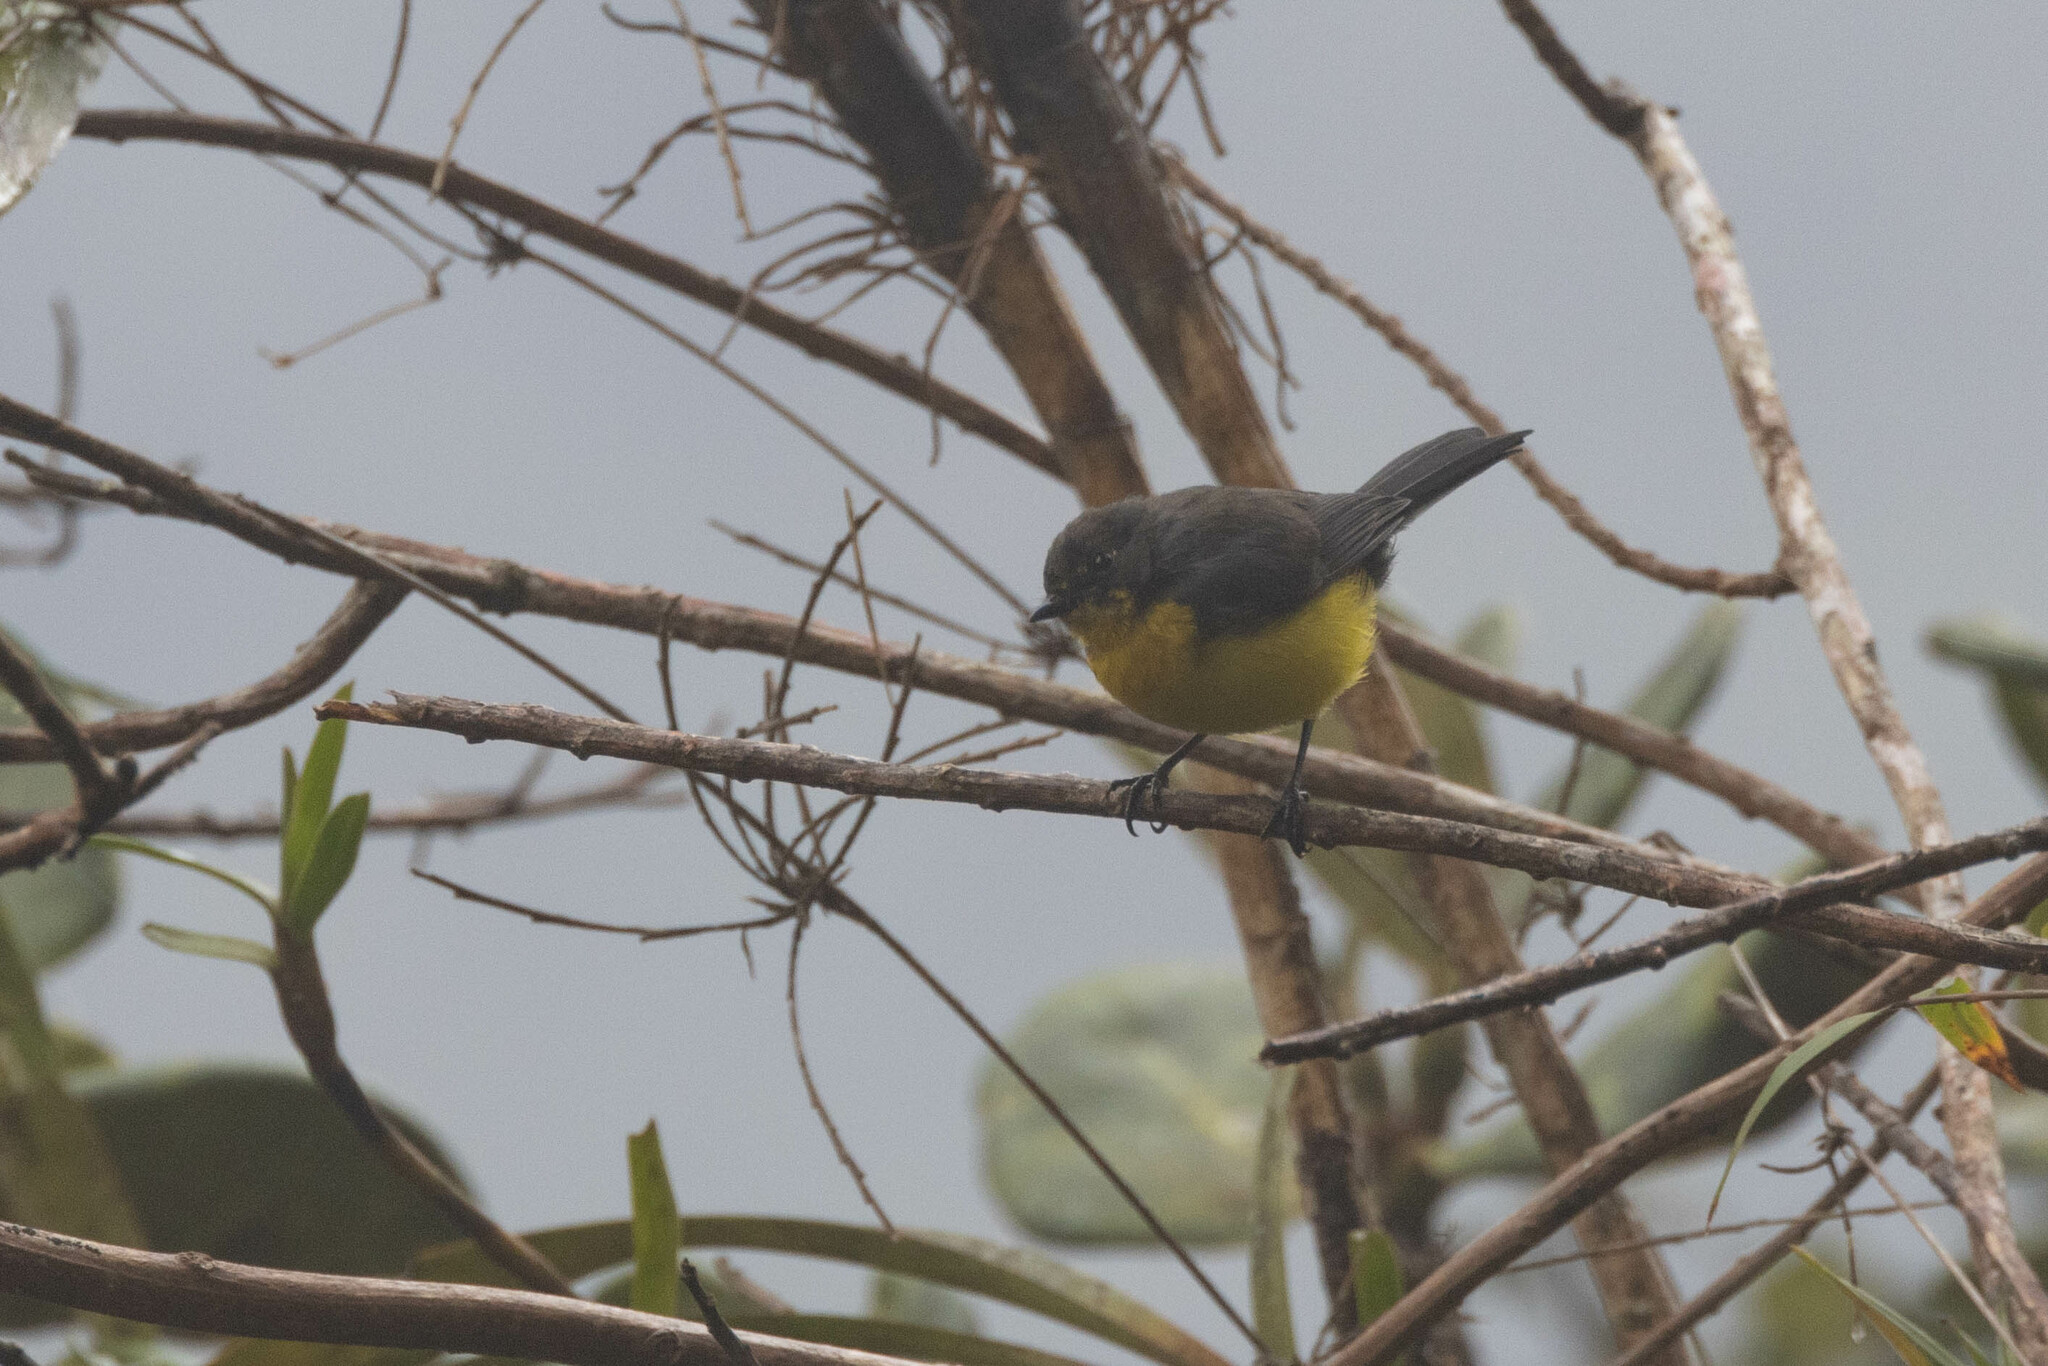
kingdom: Animalia
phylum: Chordata
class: Aves
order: Passeriformes
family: Parulidae
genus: Myioborus
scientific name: Myioborus melanocephalus
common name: Spectacled whitestart
